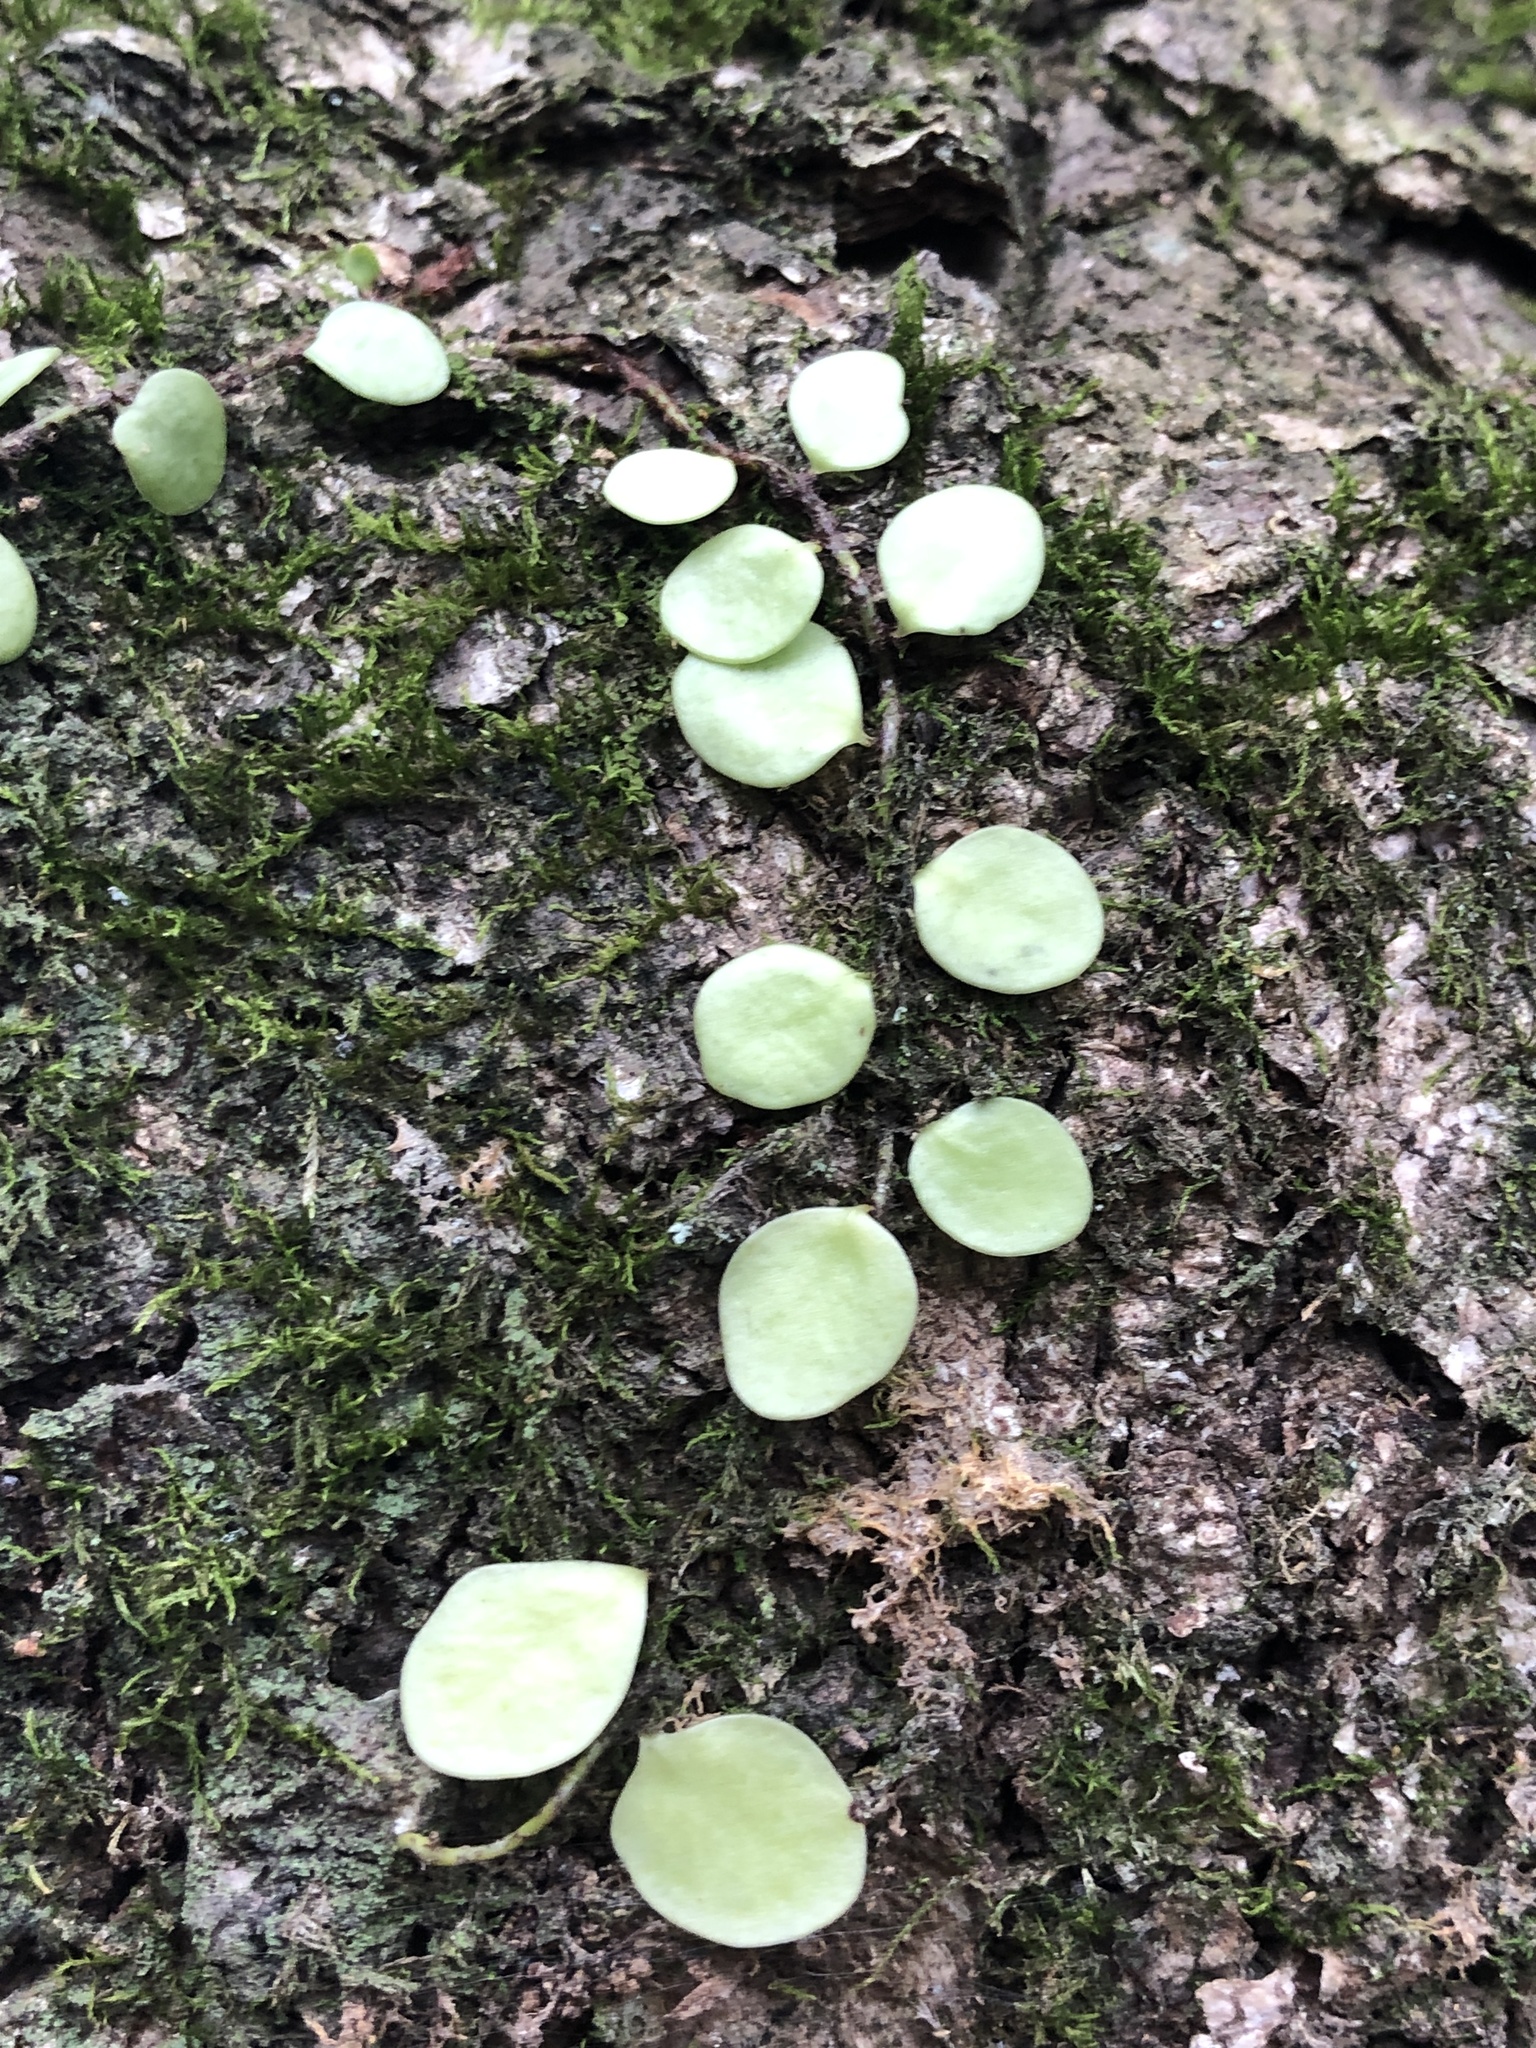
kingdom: Plantae
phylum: Tracheophyta
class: Polypodiopsida
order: Polypodiales
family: Polypodiaceae
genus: Lepisorus
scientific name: Lepisorus microphyllus
